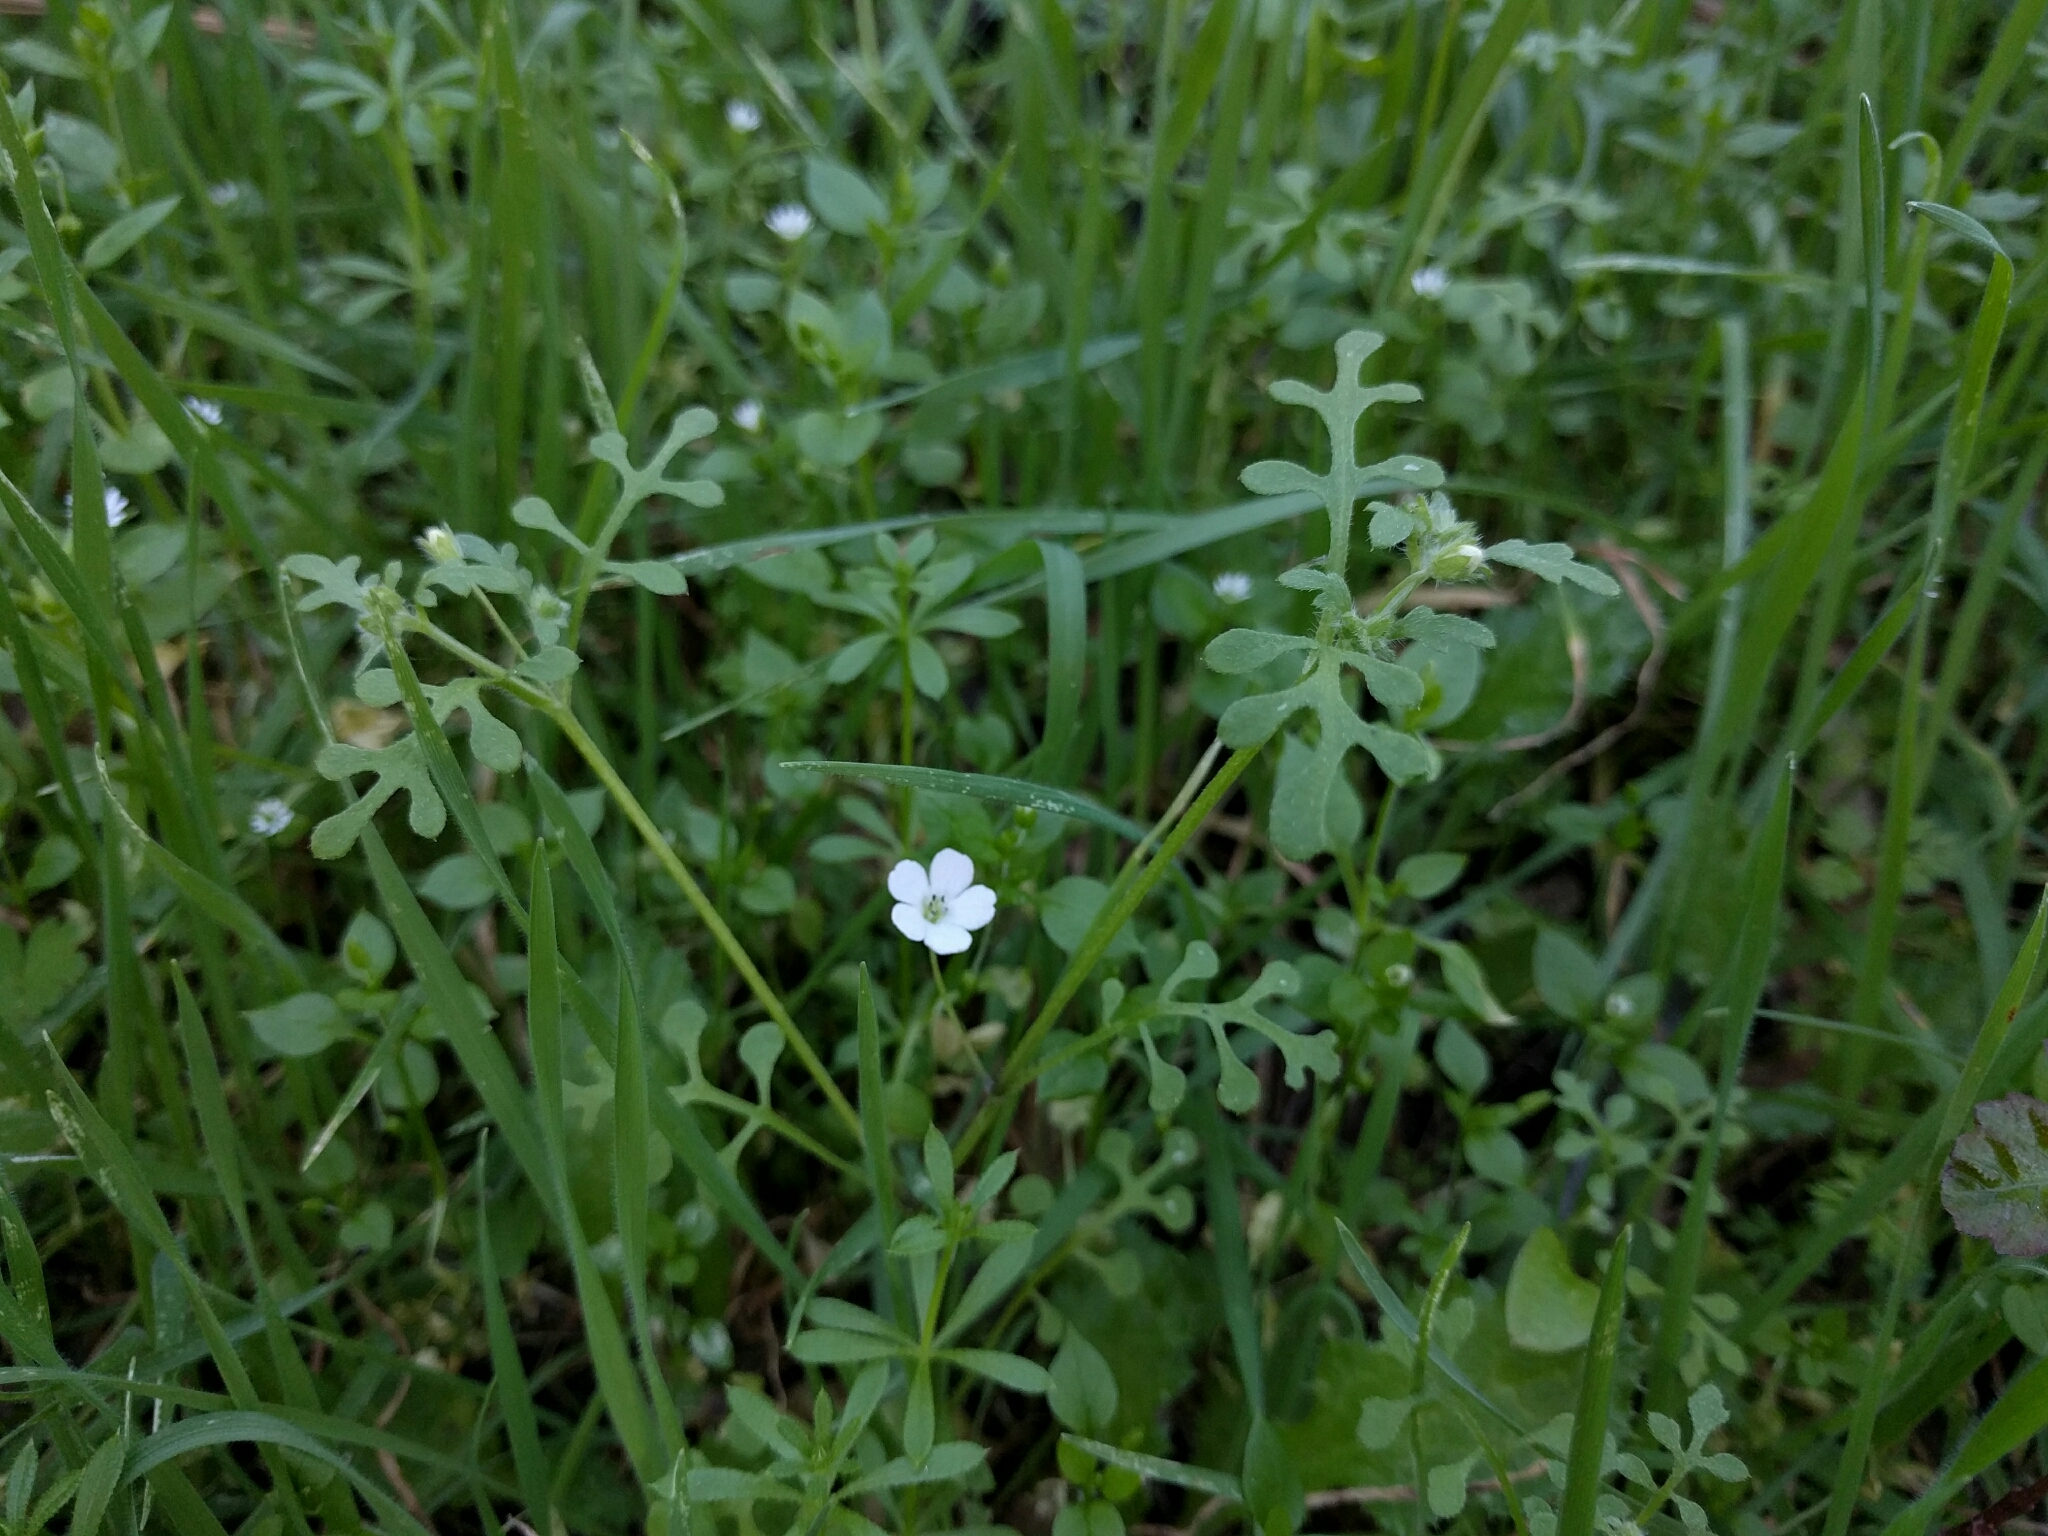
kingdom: Plantae
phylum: Tracheophyta
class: Magnoliopsida
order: Boraginales
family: Hydrophyllaceae
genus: Nemophila
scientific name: Nemophila heterophylla
